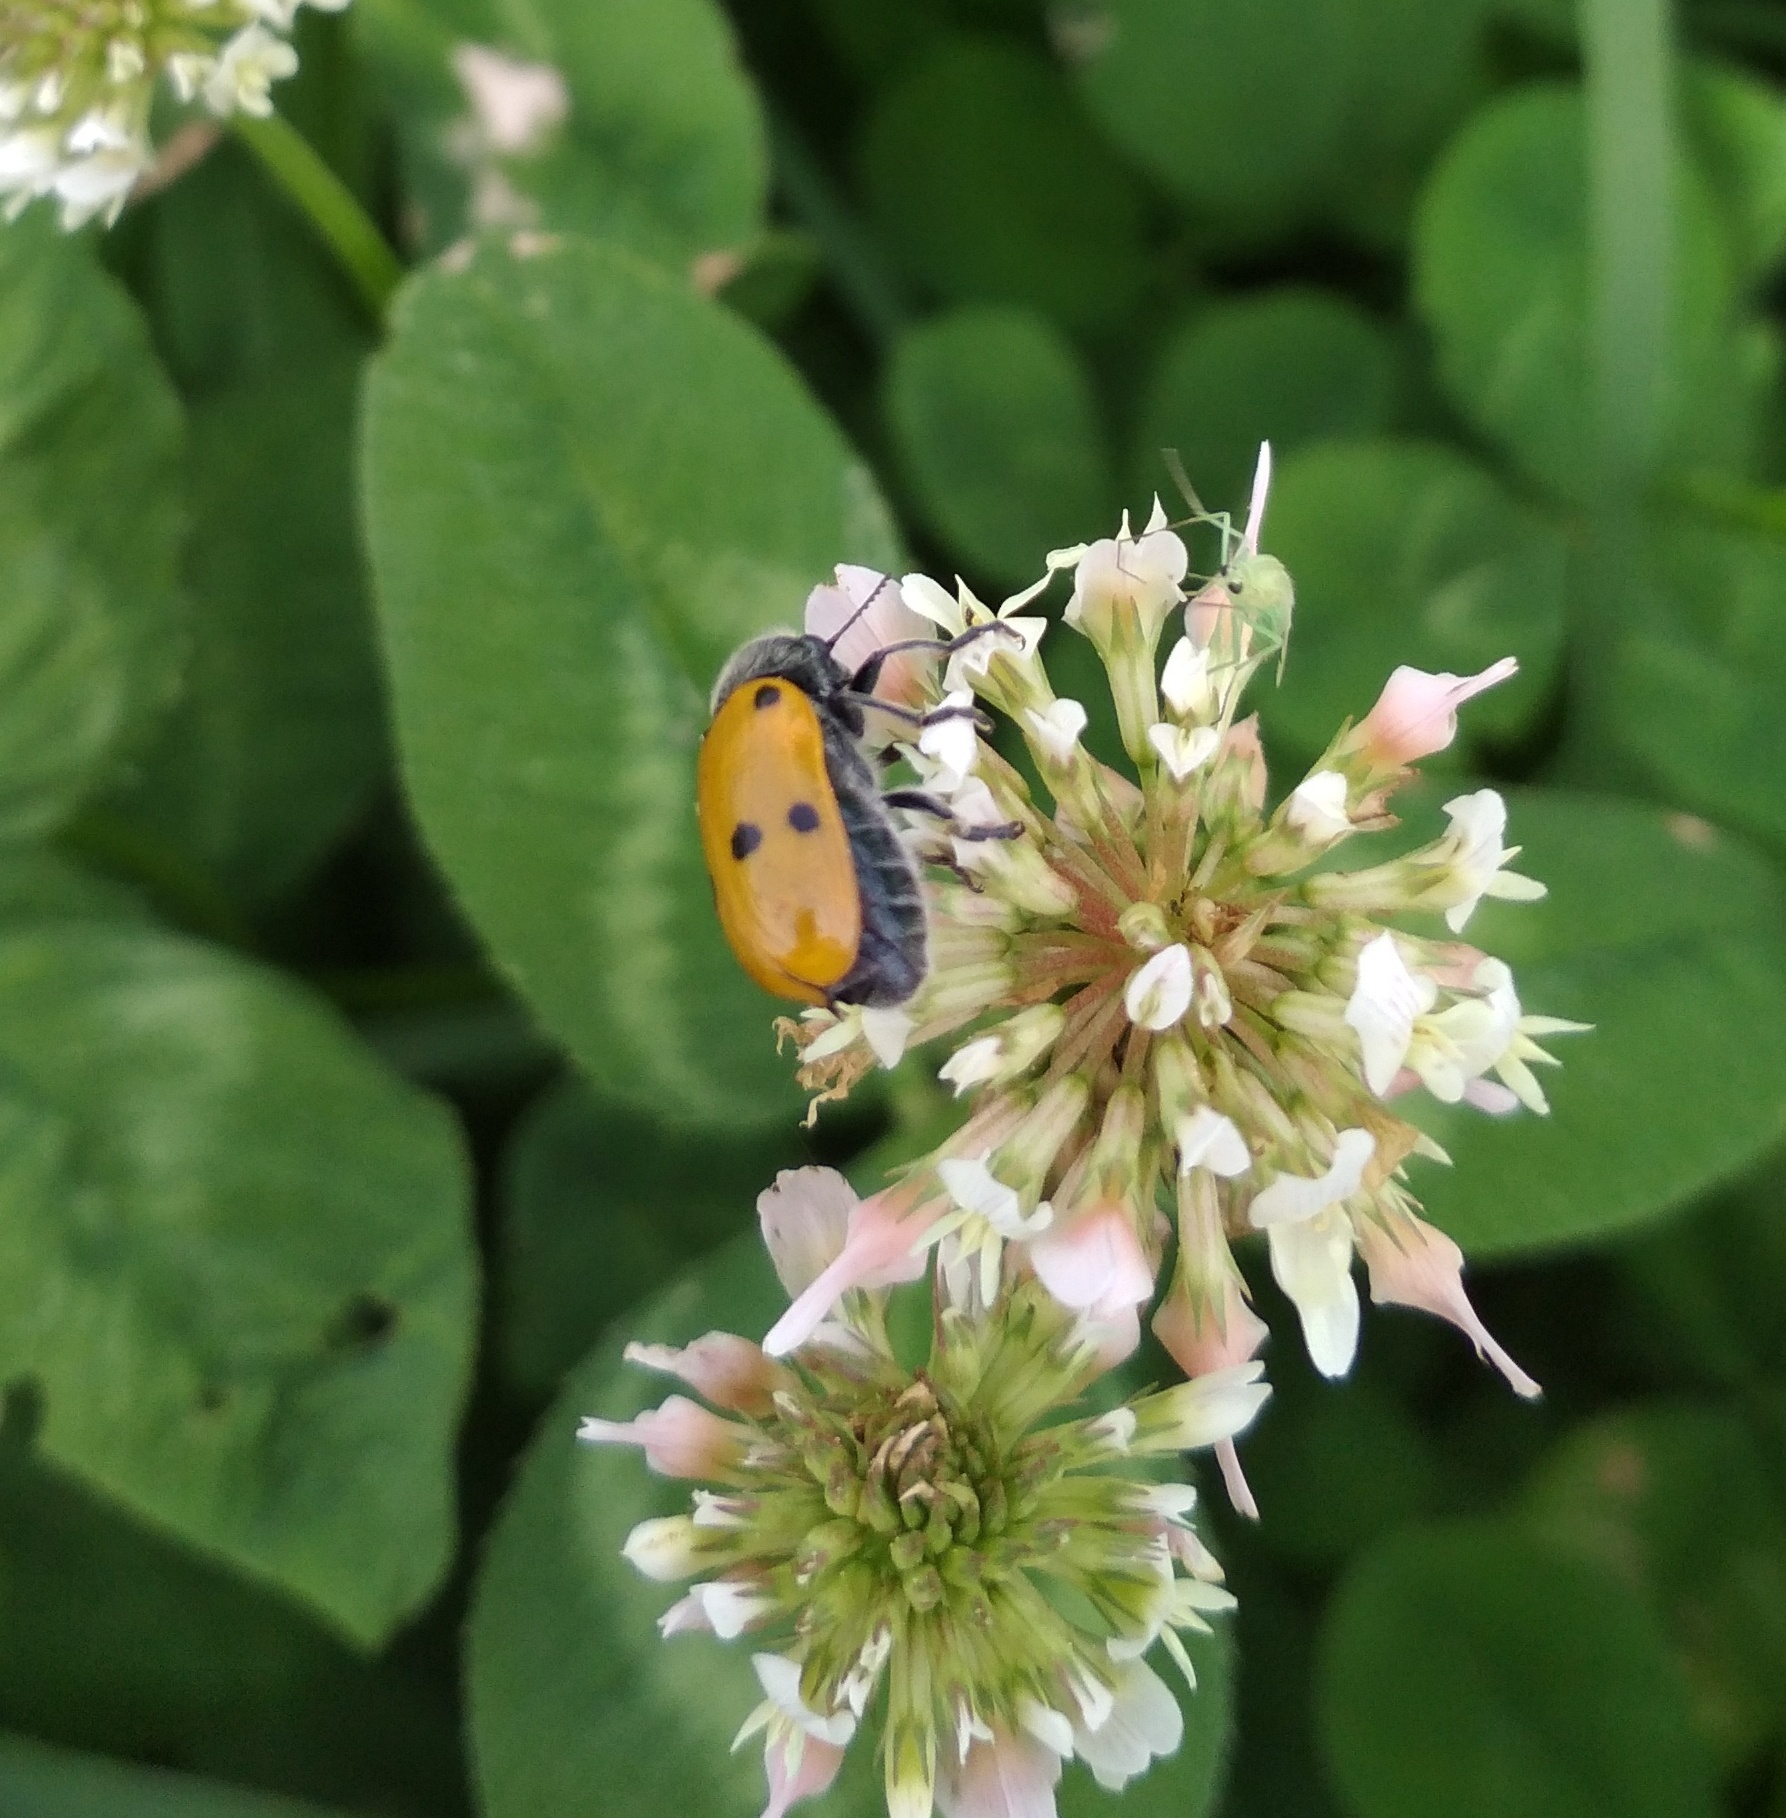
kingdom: Animalia
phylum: Arthropoda
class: Insecta
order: Coleoptera
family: Chrysomelidae
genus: Lachnaia
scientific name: Lachnaia italica
